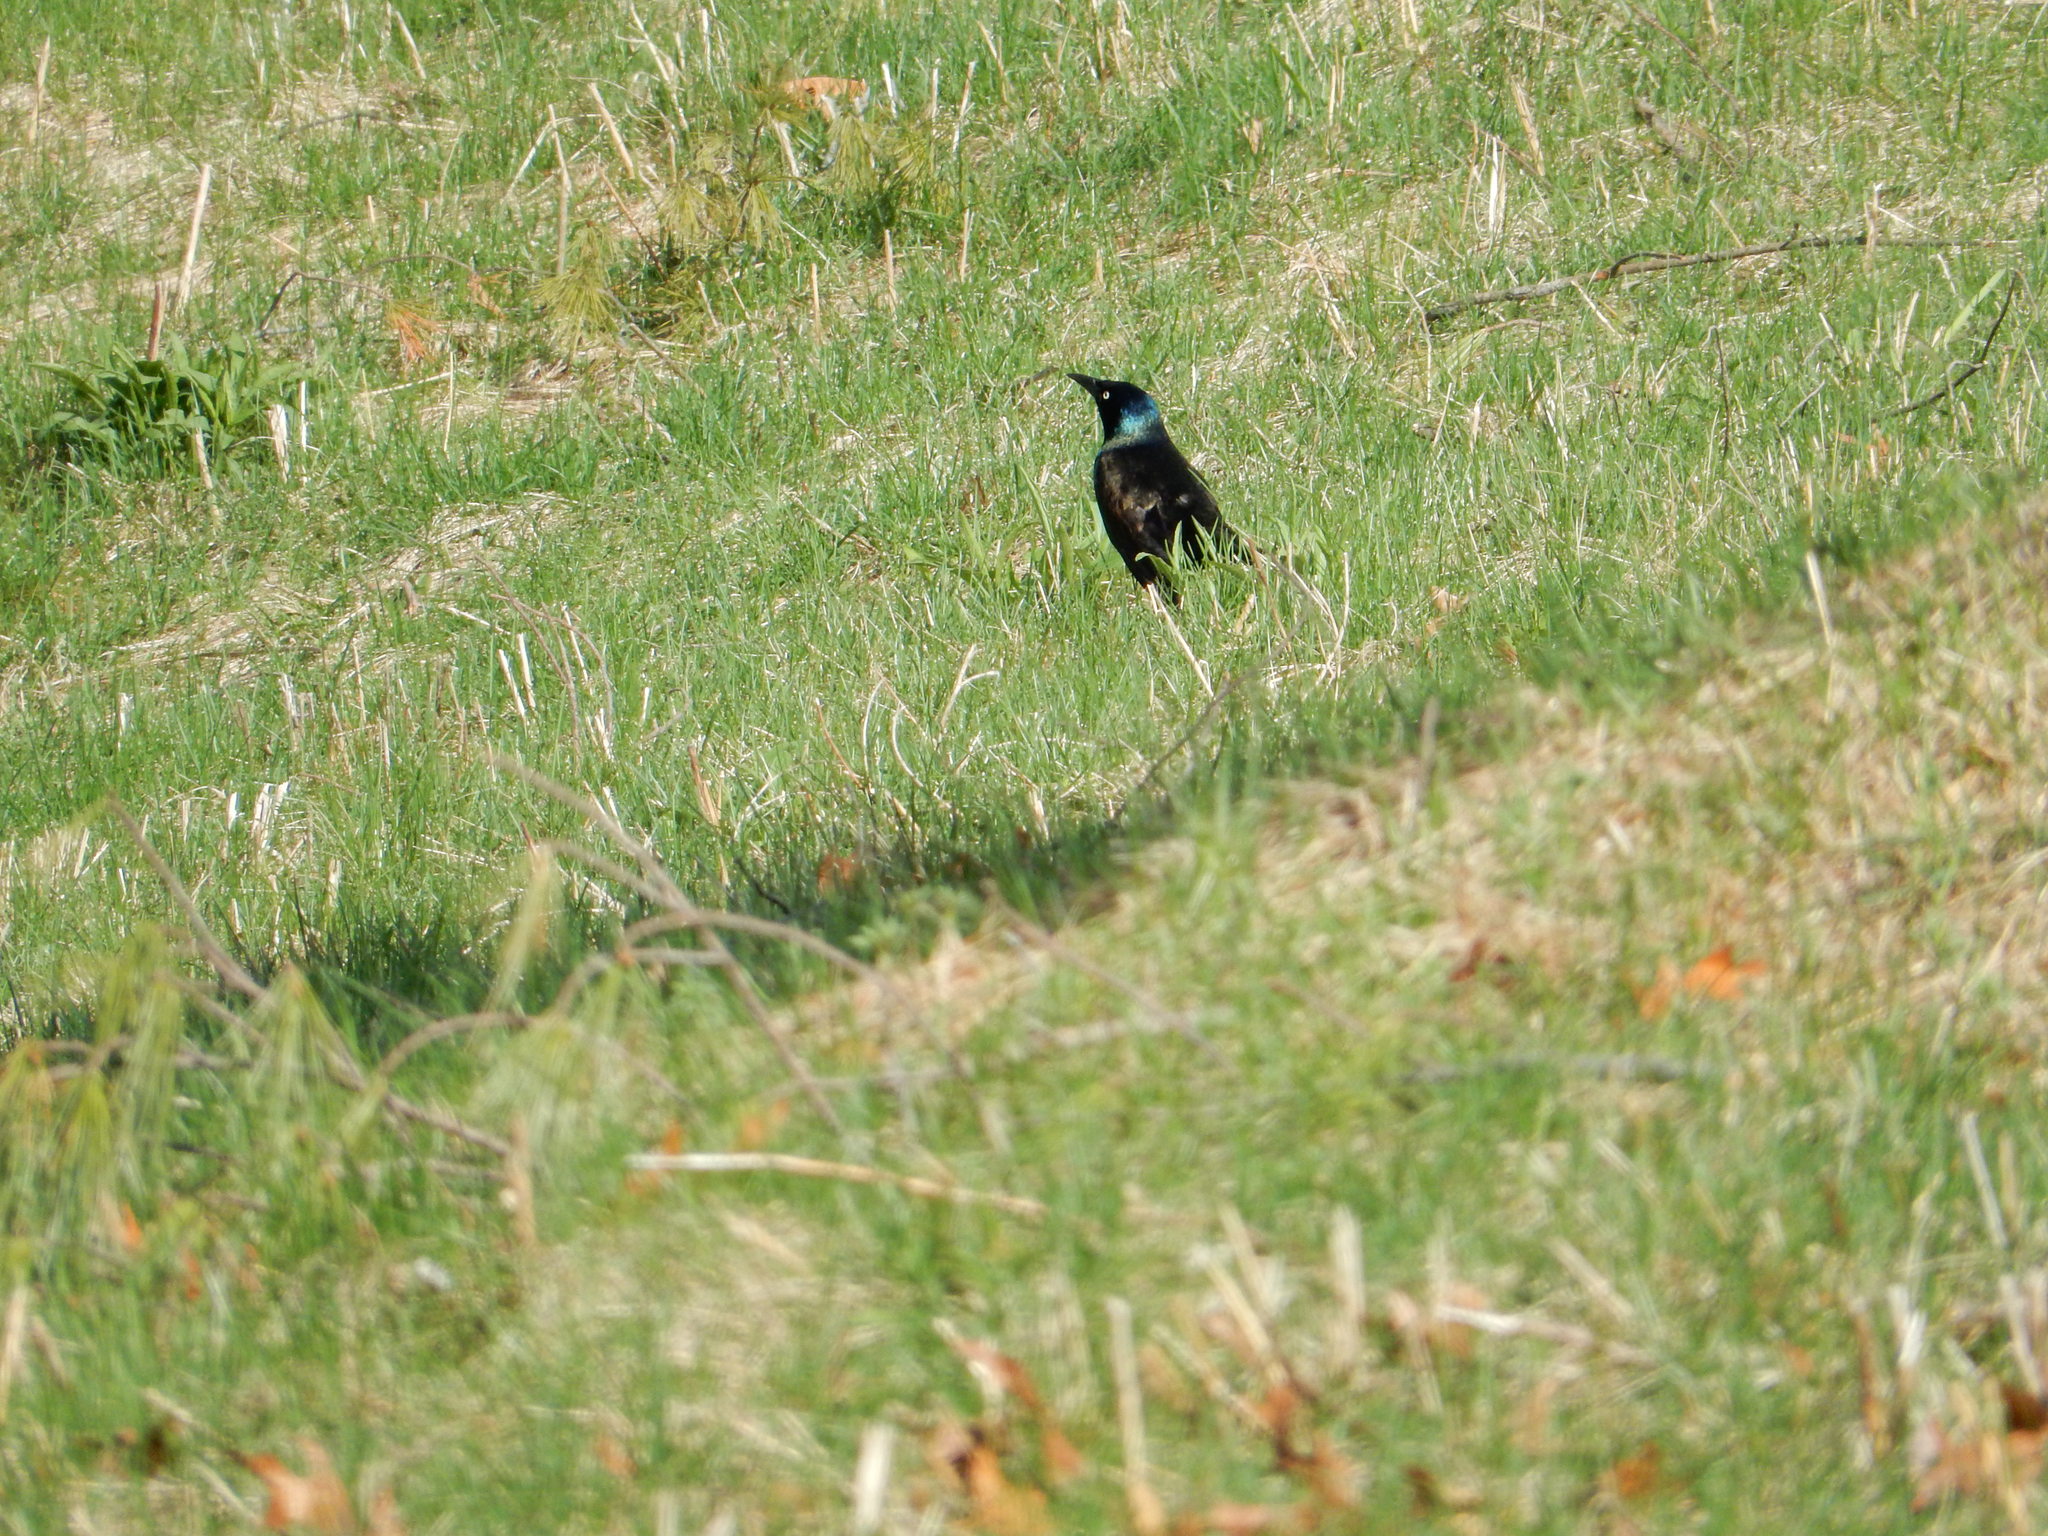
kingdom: Animalia
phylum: Chordata
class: Aves
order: Passeriformes
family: Icteridae
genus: Quiscalus
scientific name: Quiscalus quiscula
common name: Common grackle
